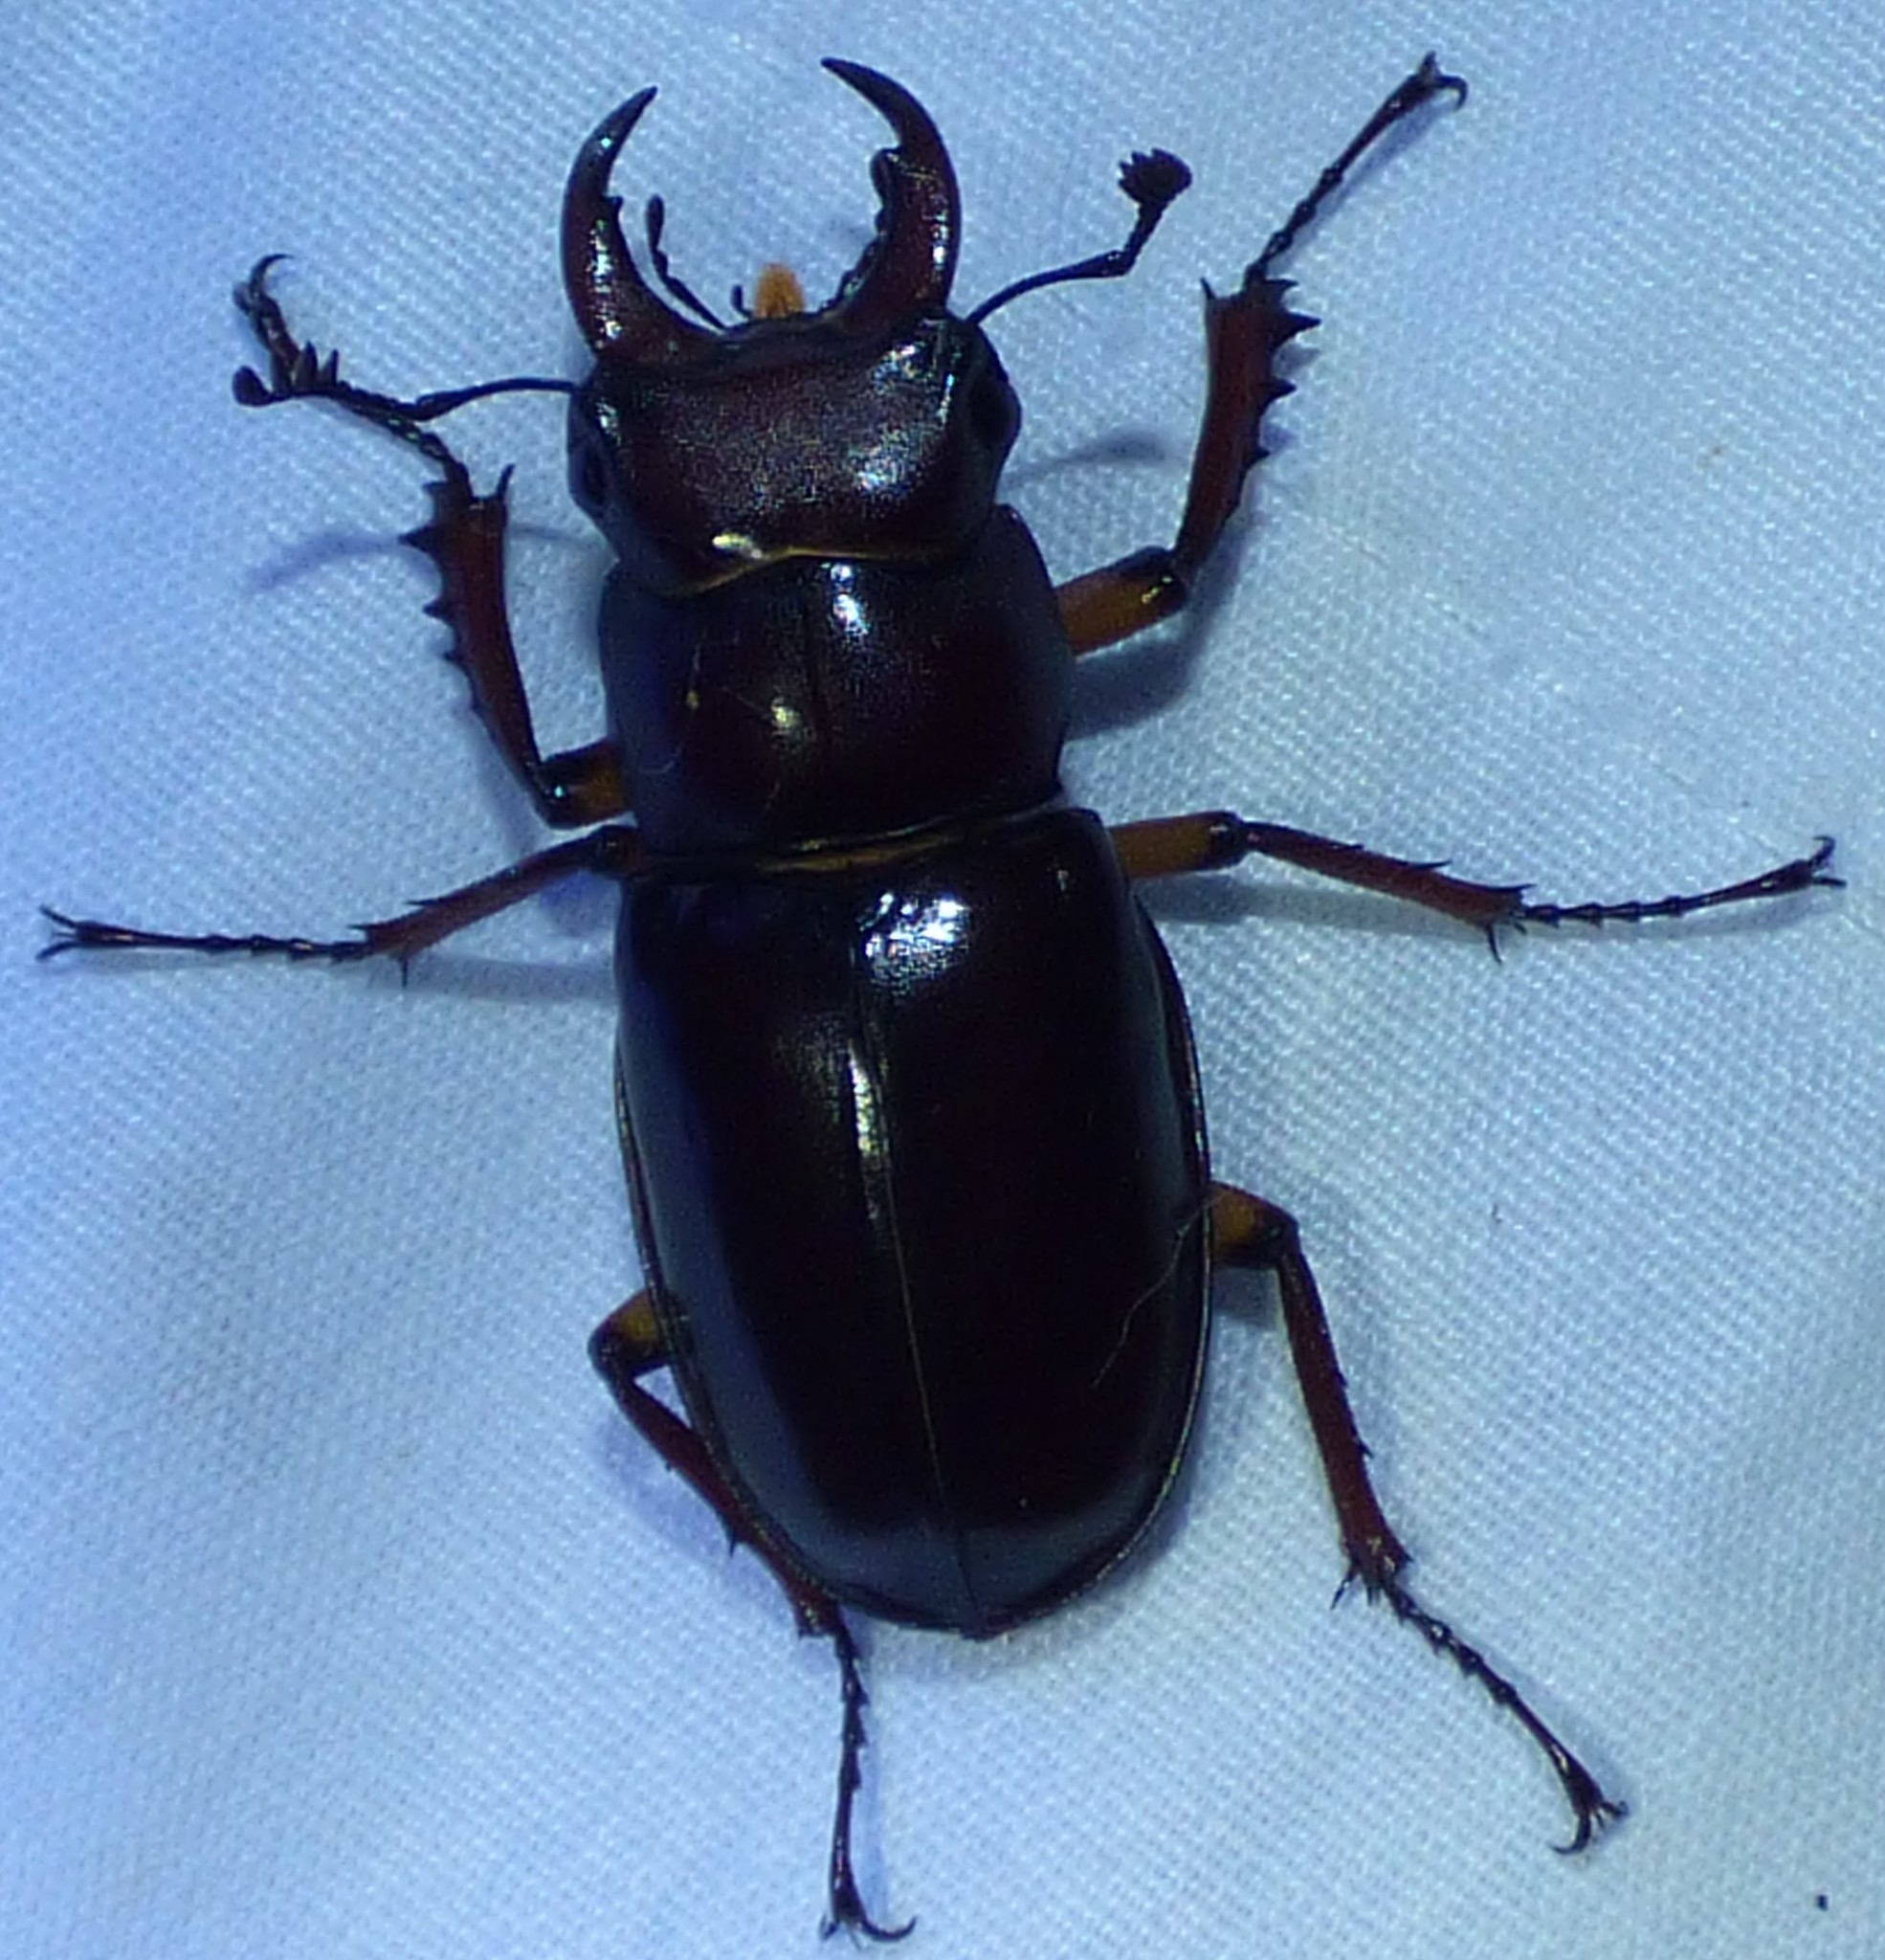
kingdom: Animalia
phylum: Arthropoda
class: Insecta
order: Coleoptera
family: Lucanidae
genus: Lucanus
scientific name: Lucanus capreolus
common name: Stag beetle
